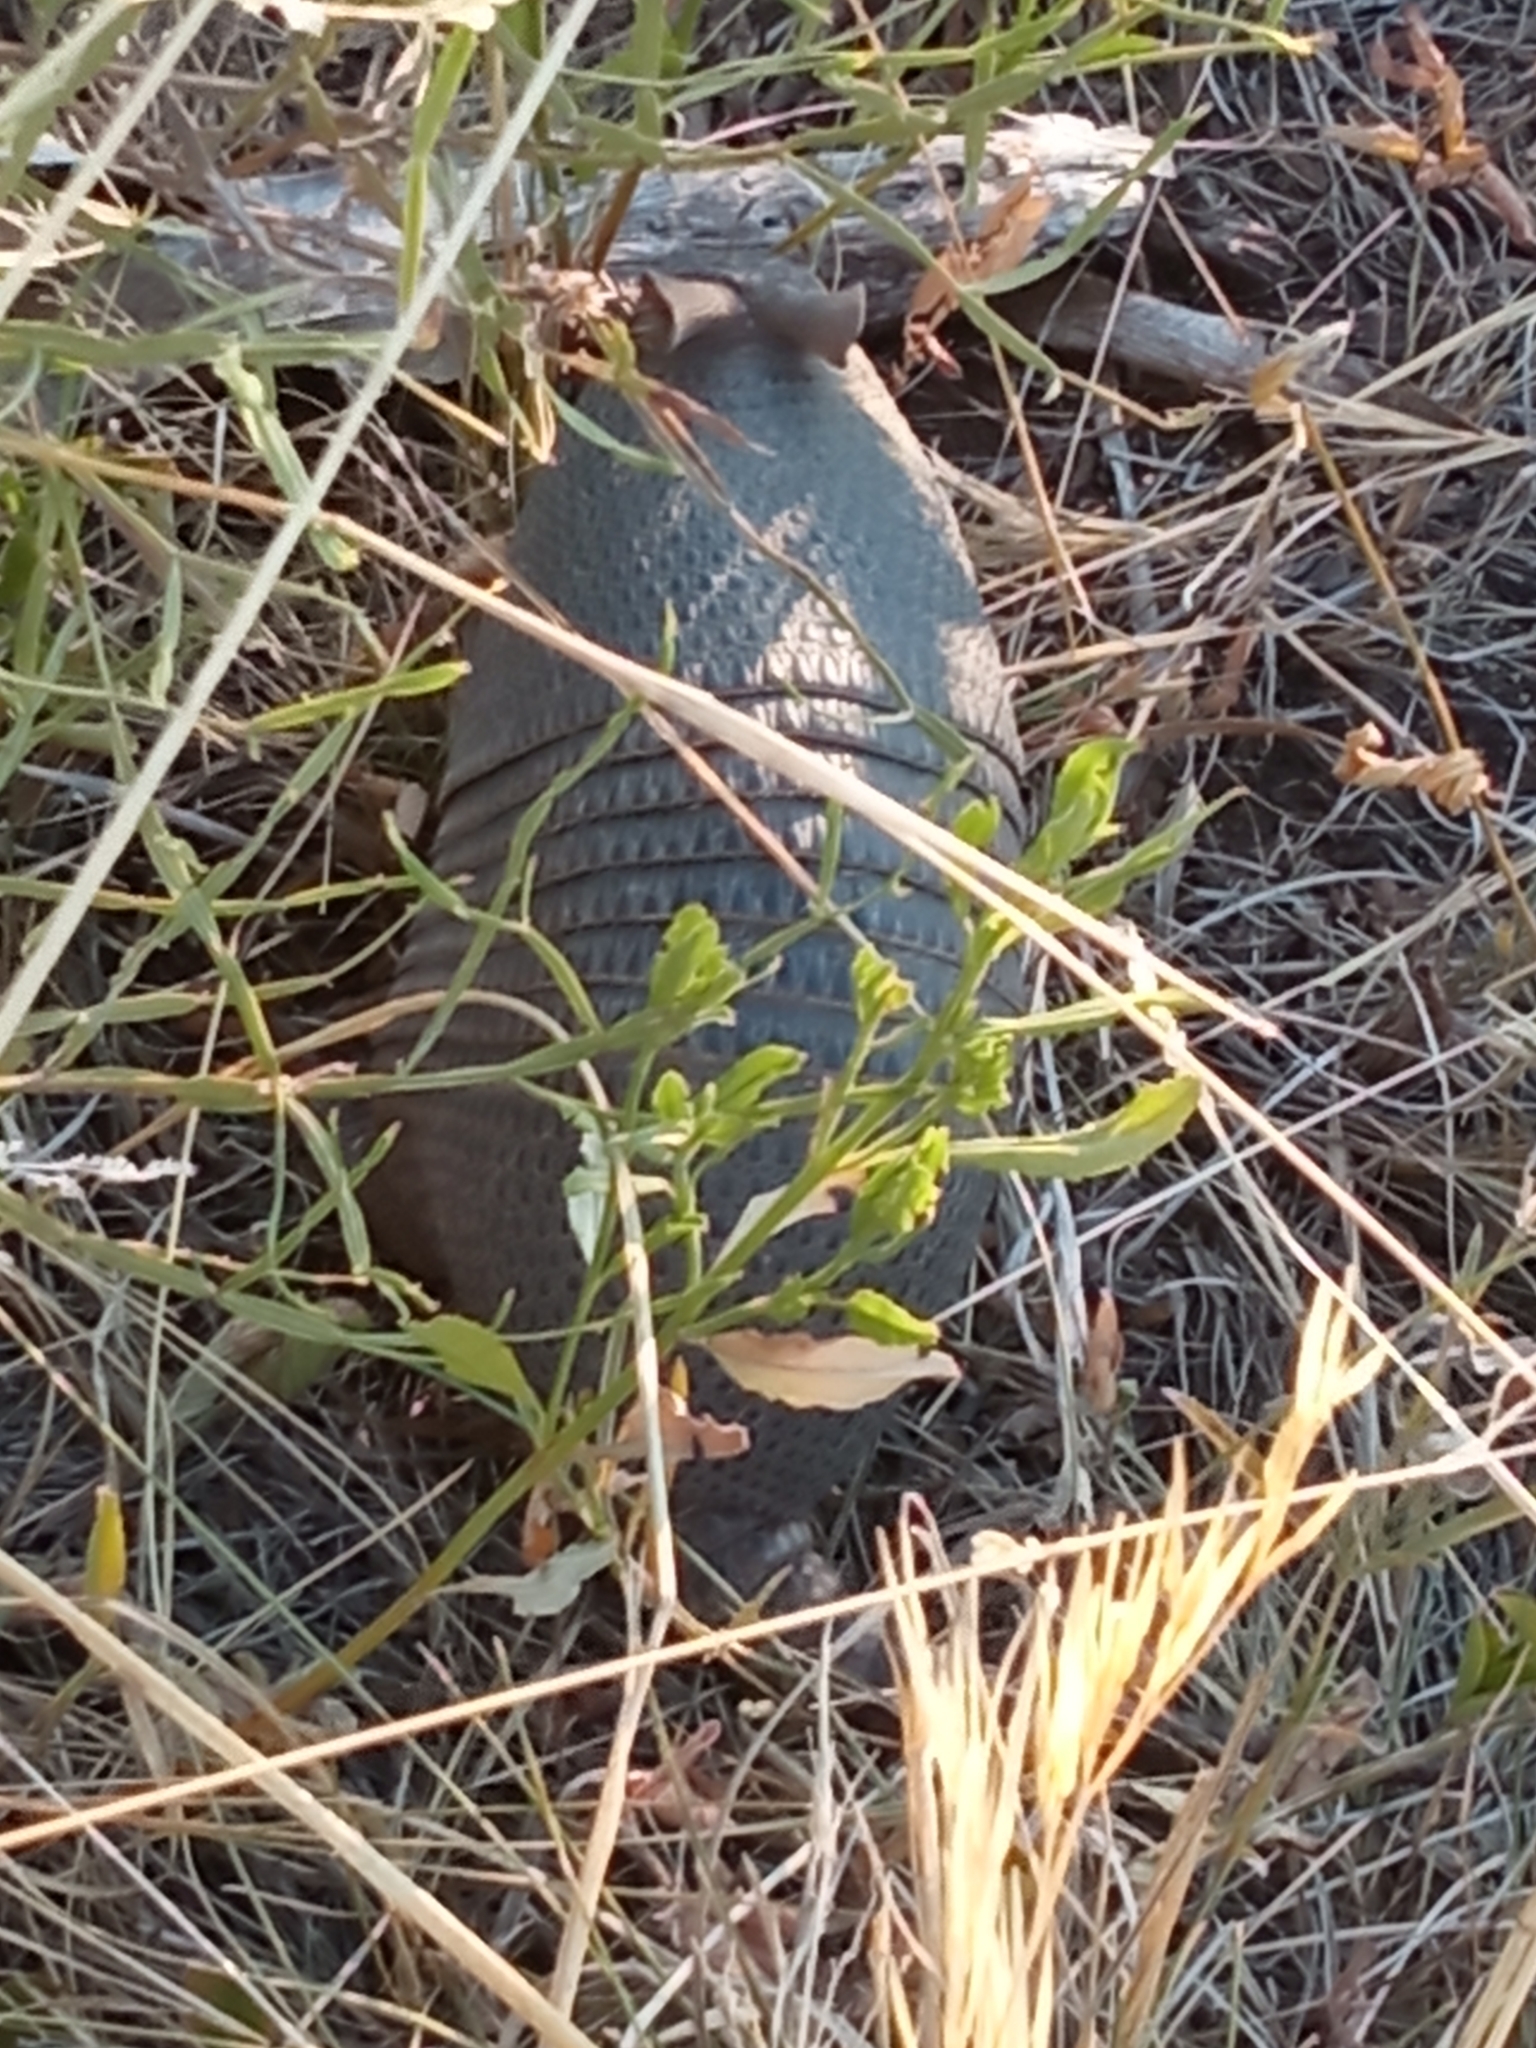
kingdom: Animalia
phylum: Chordata
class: Mammalia
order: Cingulata
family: Dasypodidae
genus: Dasypus
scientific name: Dasypus septemcinctus
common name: Seven-banded armadillo
